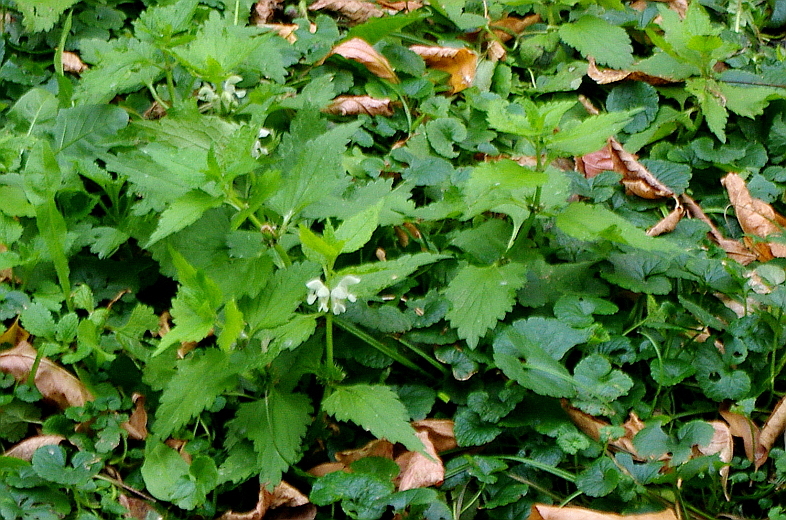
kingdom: Plantae
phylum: Tracheophyta
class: Magnoliopsida
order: Lamiales
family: Lamiaceae
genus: Lamium
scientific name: Lamium album
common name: White dead-nettle
